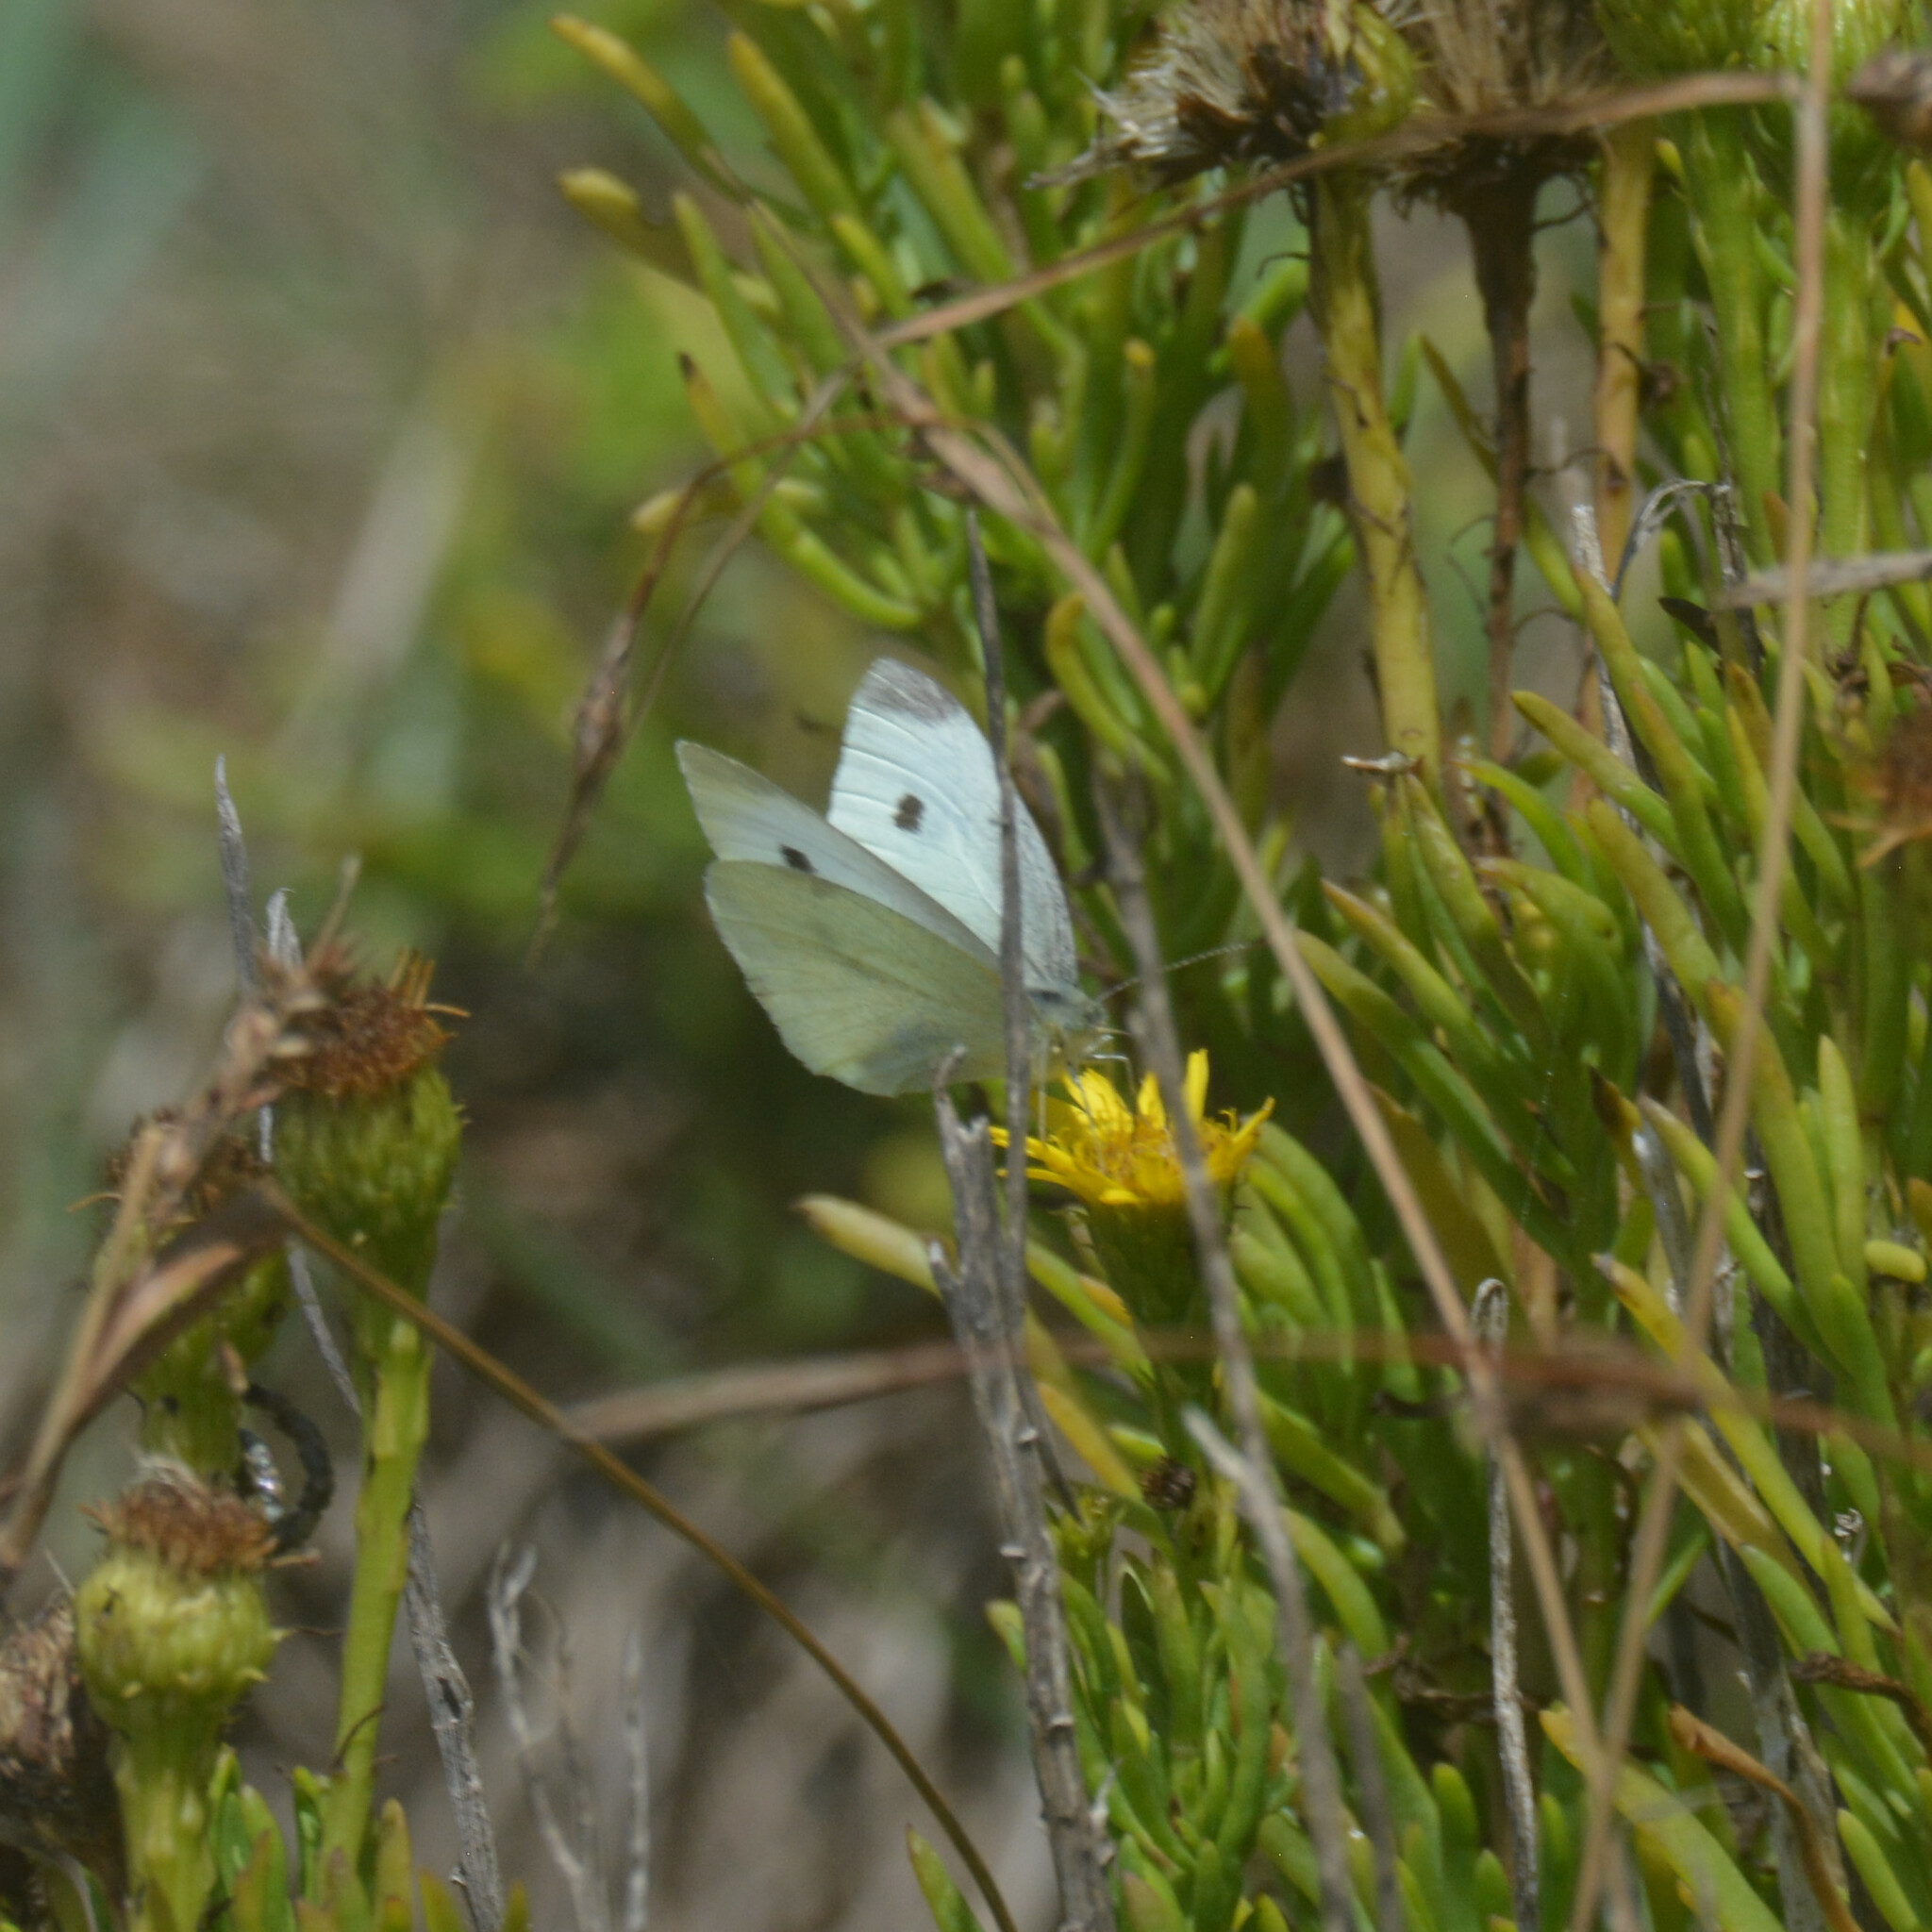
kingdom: Animalia
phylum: Arthropoda
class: Insecta
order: Lepidoptera
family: Pieridae
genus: Pieris
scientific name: Pieris rapae
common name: Small white
